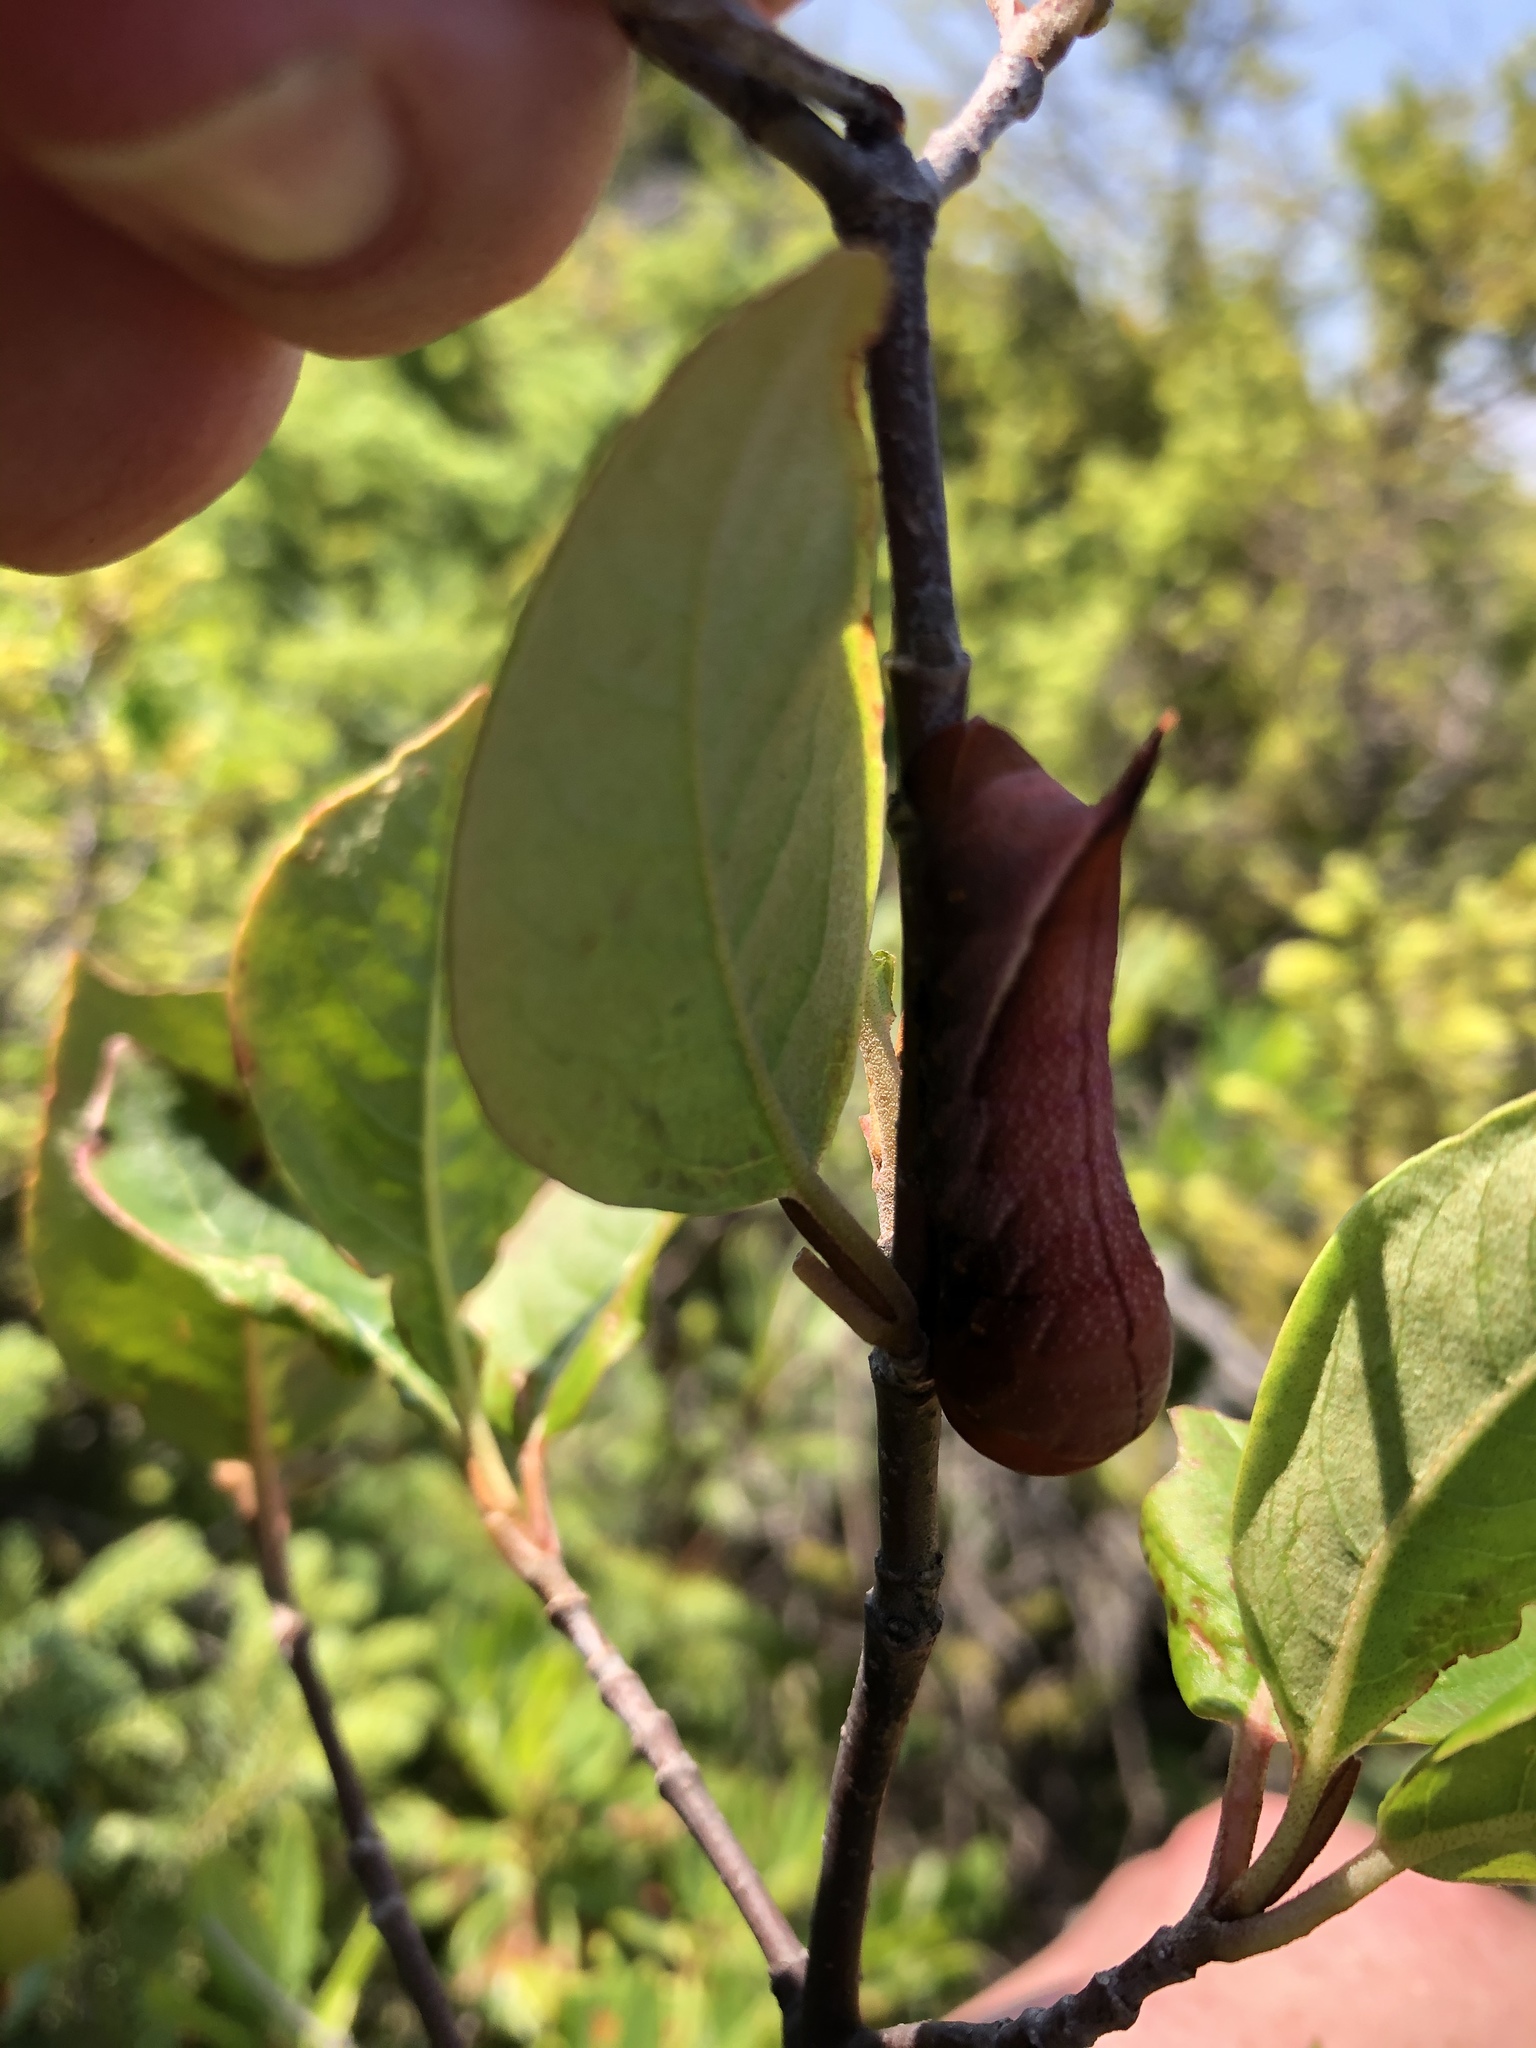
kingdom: Animalia
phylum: Arthropoda
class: Insecta
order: Lepidoptera
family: Sphingidae
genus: Darapsa
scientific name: Darapsa choerilus
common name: Azalea sphinx
